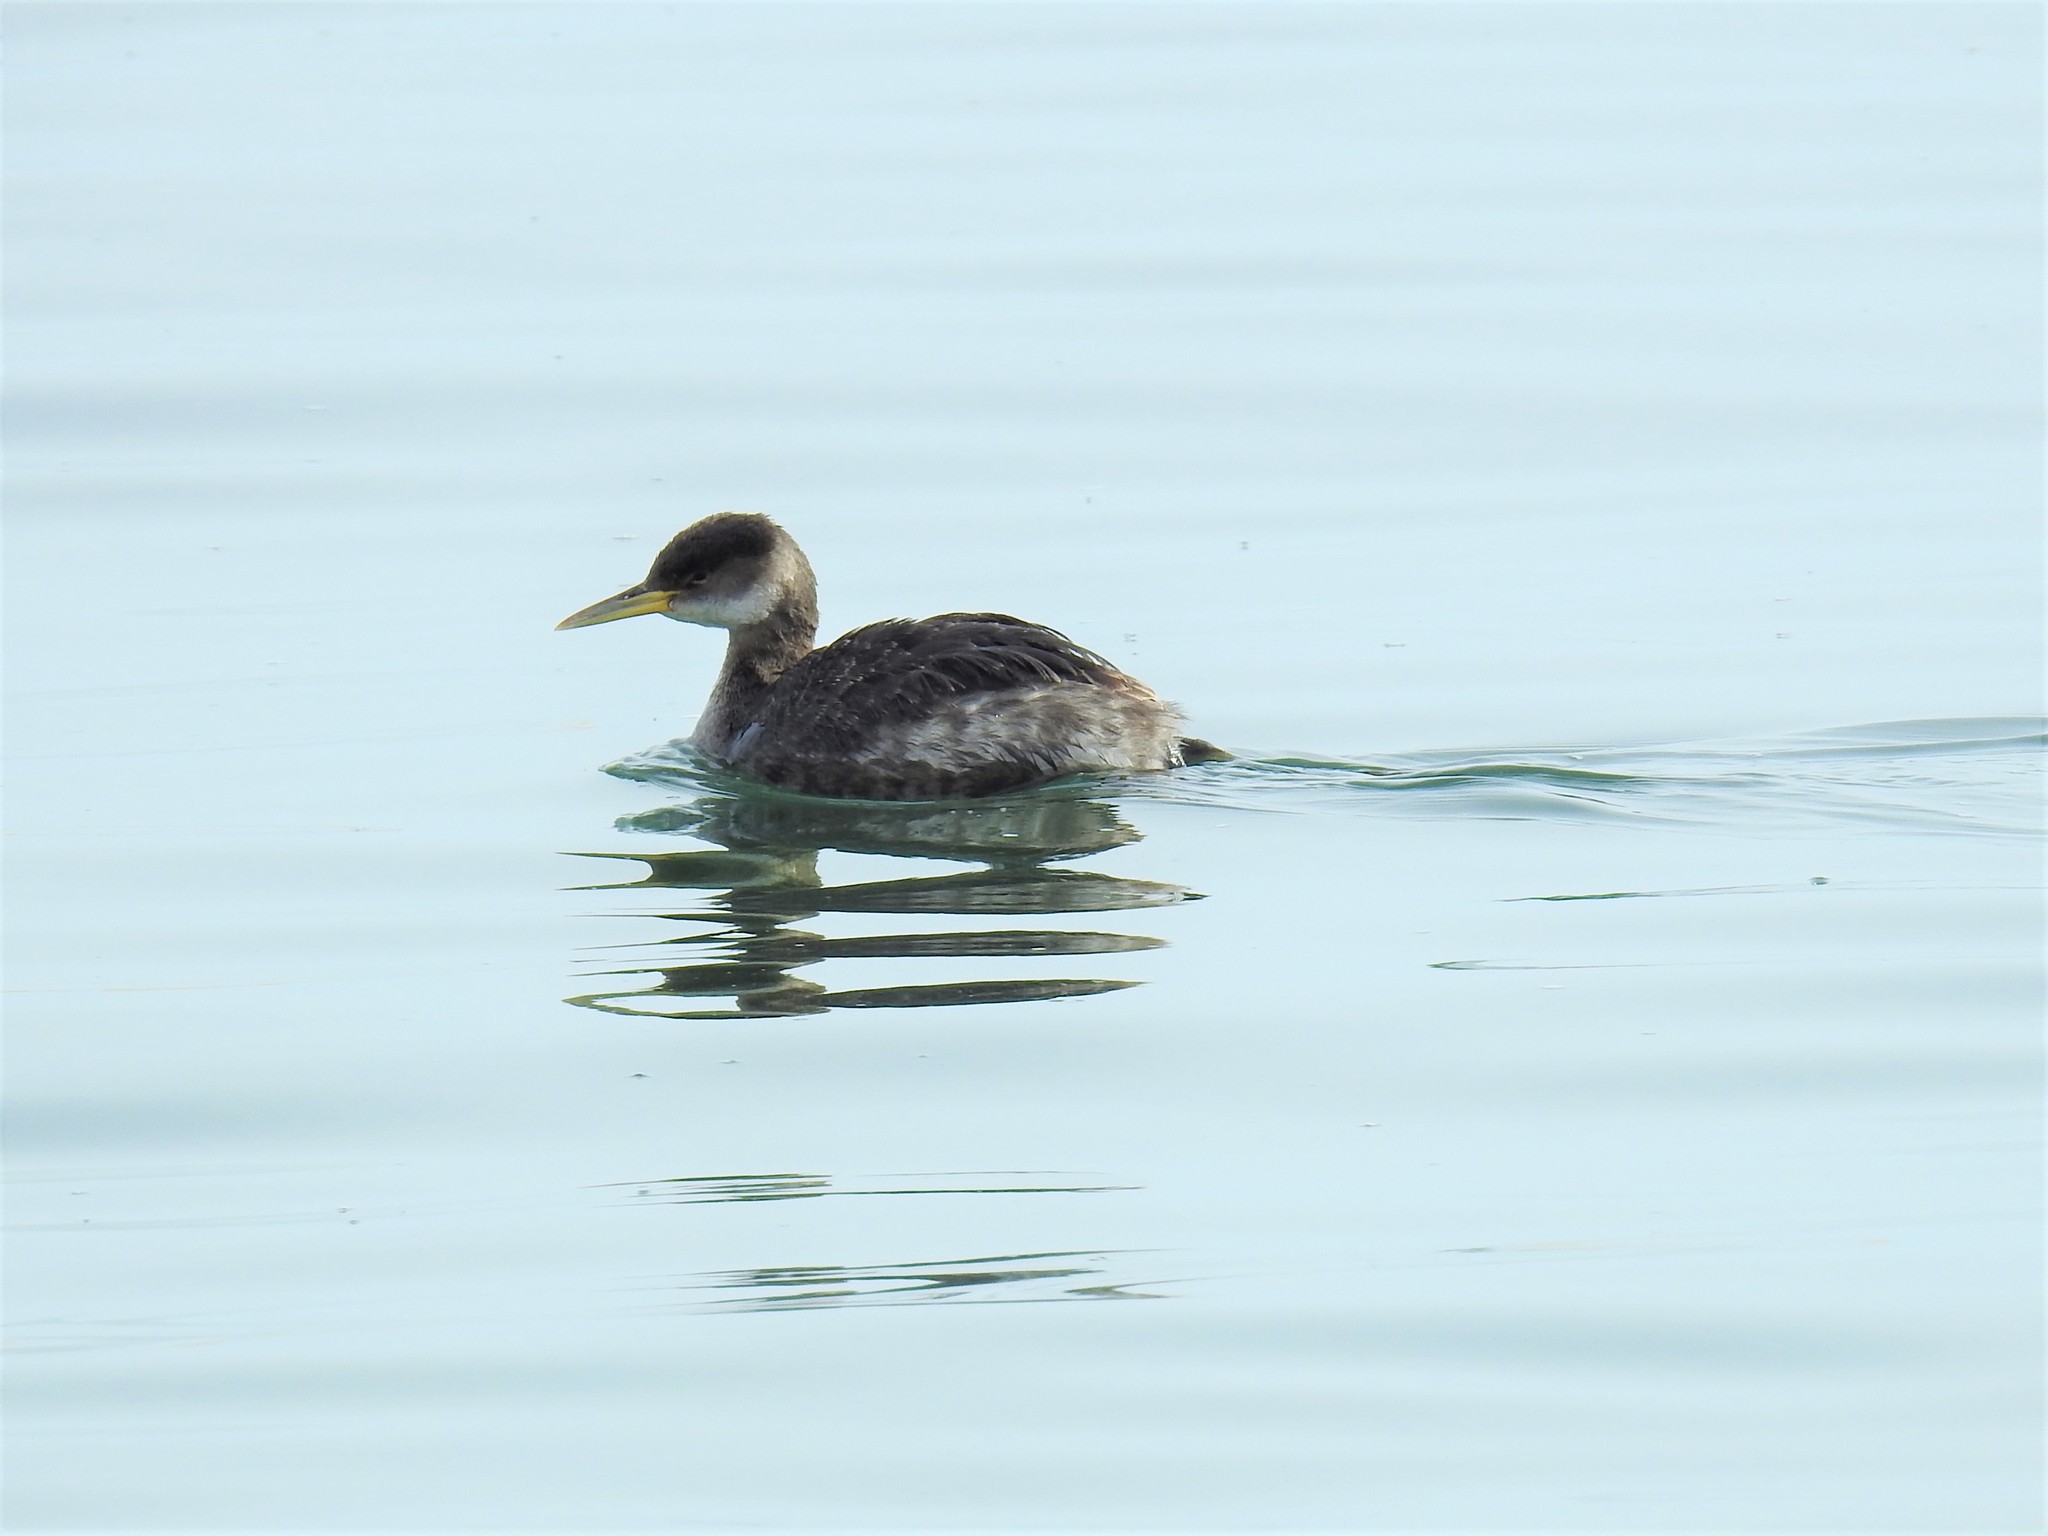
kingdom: Animalia
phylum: Chordata
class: Aves
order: Podicipediformes
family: Podicipedidae
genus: Podiceps
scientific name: Podiceps grisegena
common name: Red-necked grebe
